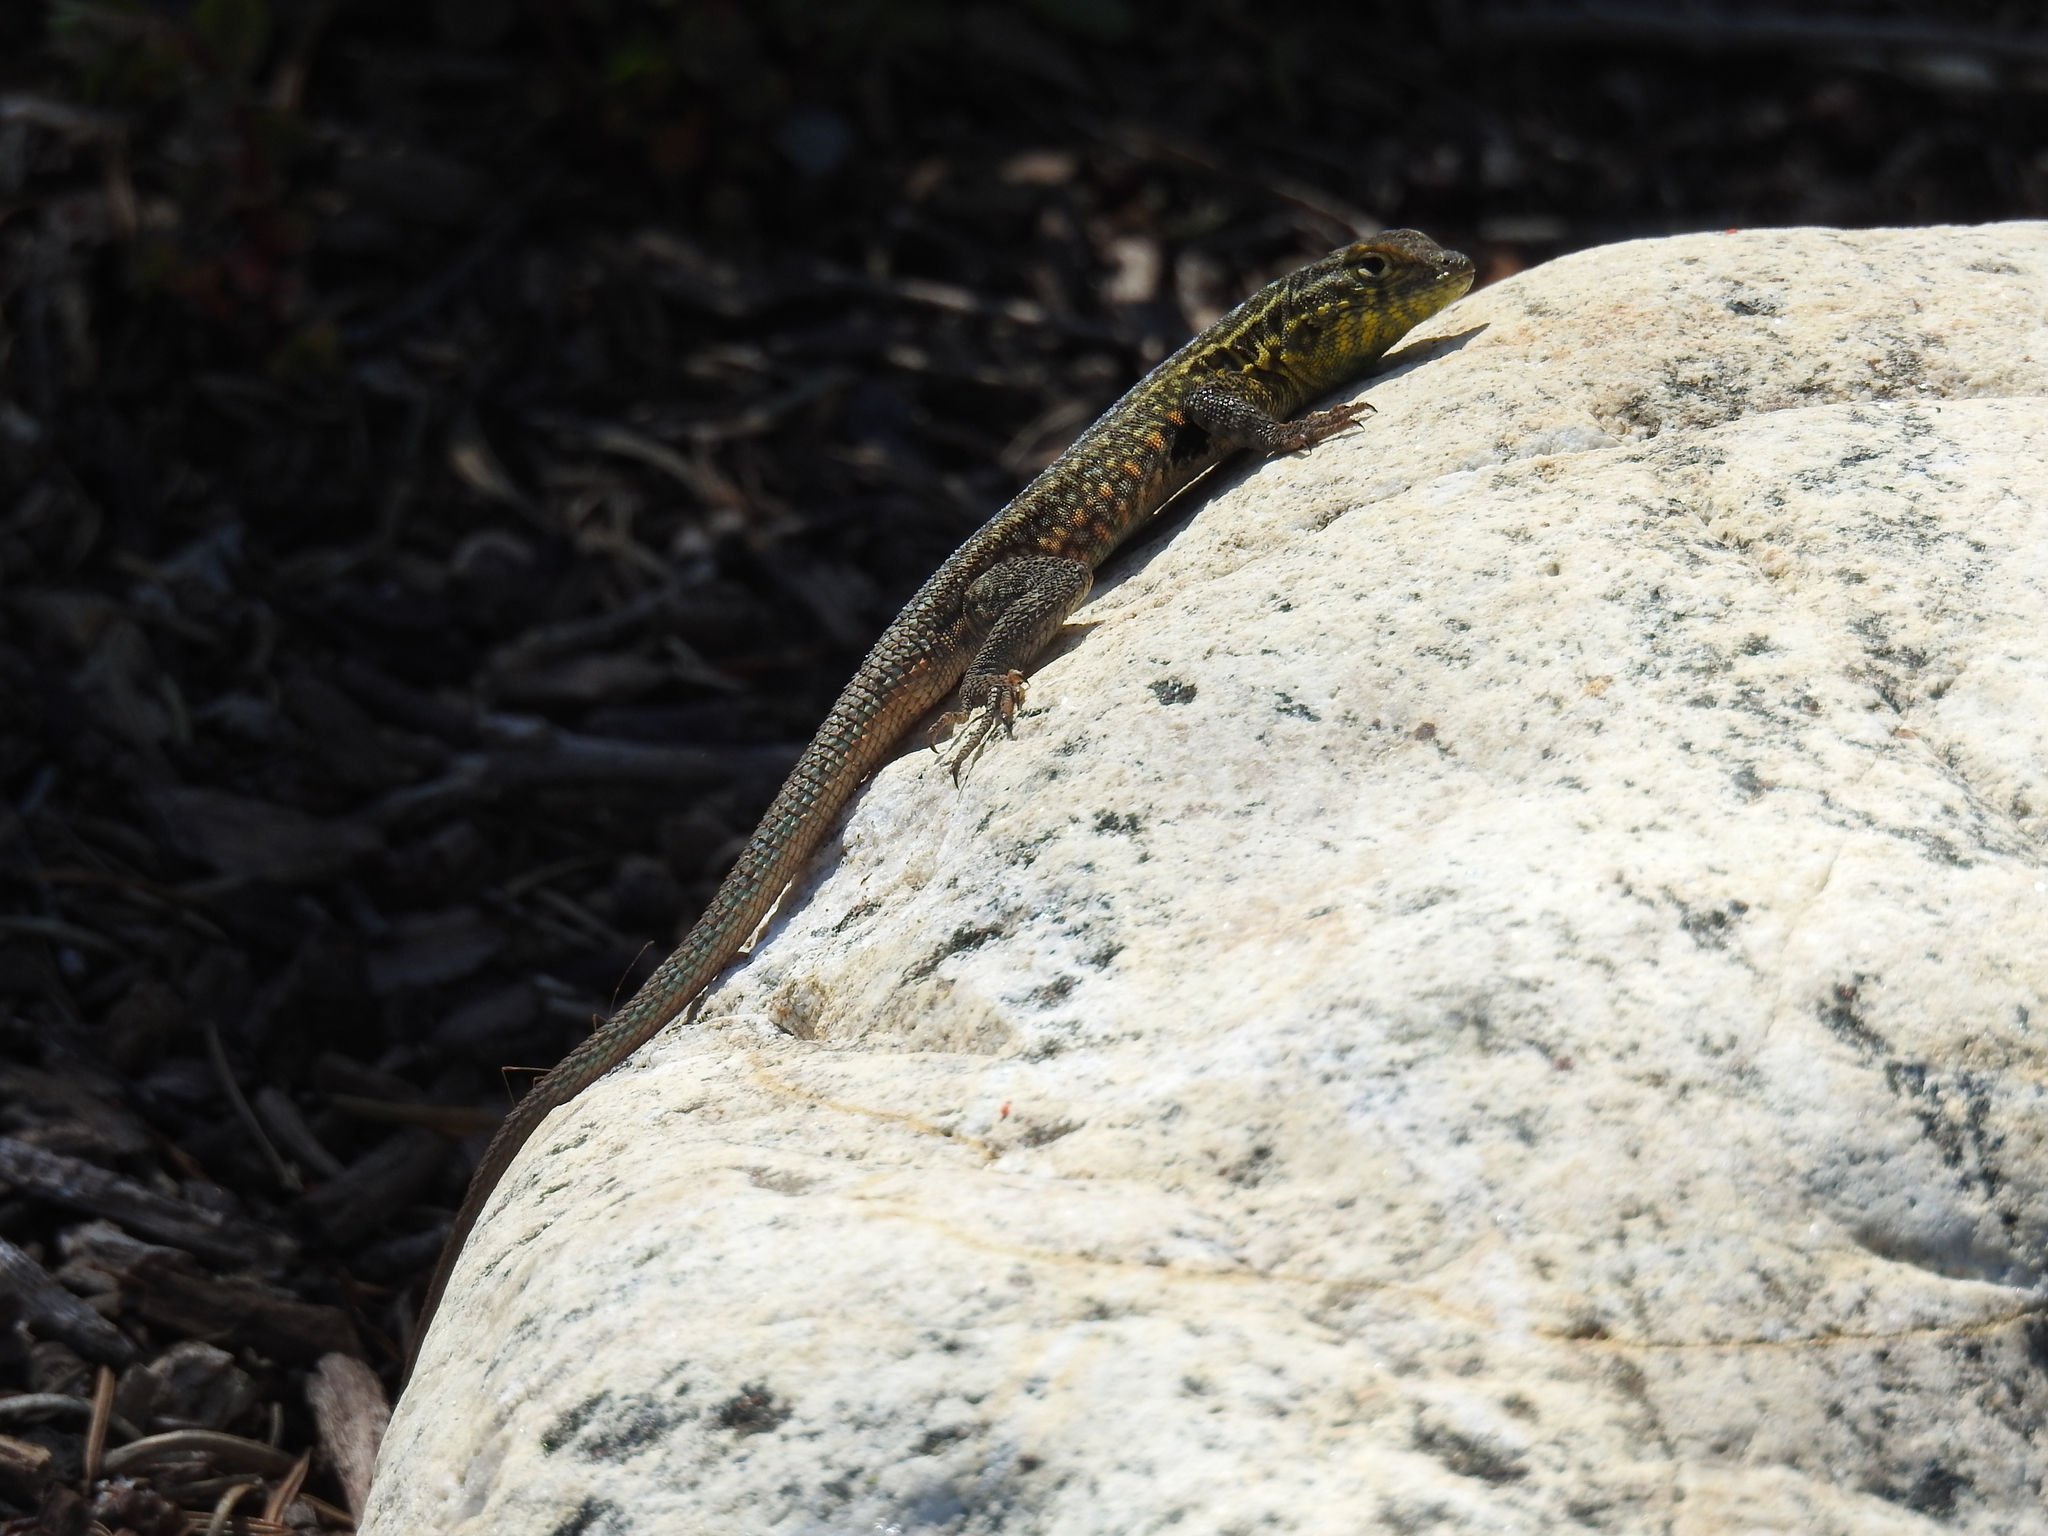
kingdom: Animalia
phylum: Chordata
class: Squamata
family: Phrynosomatidae
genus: Uta
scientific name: Uta stansburiana
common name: Side-blotched lizard
